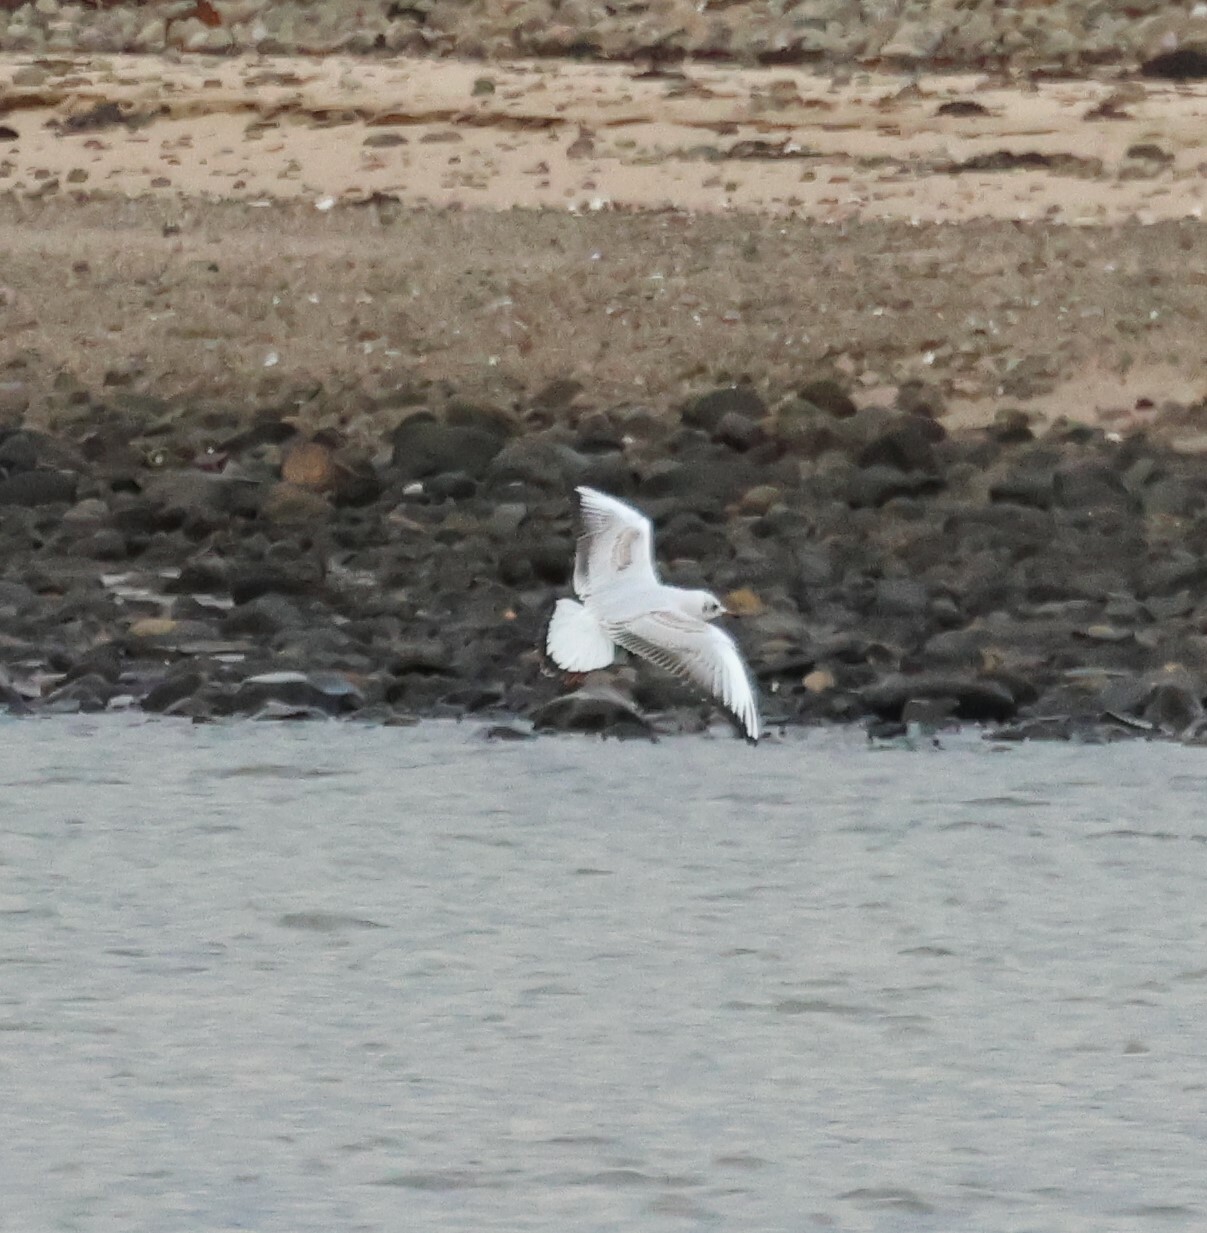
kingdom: Animalia
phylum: Chordata
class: Aves
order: Charadriiformes
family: Laridae
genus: Chroicocephalus
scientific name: Chroicocephalus ridibundus
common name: Black-headed gull
